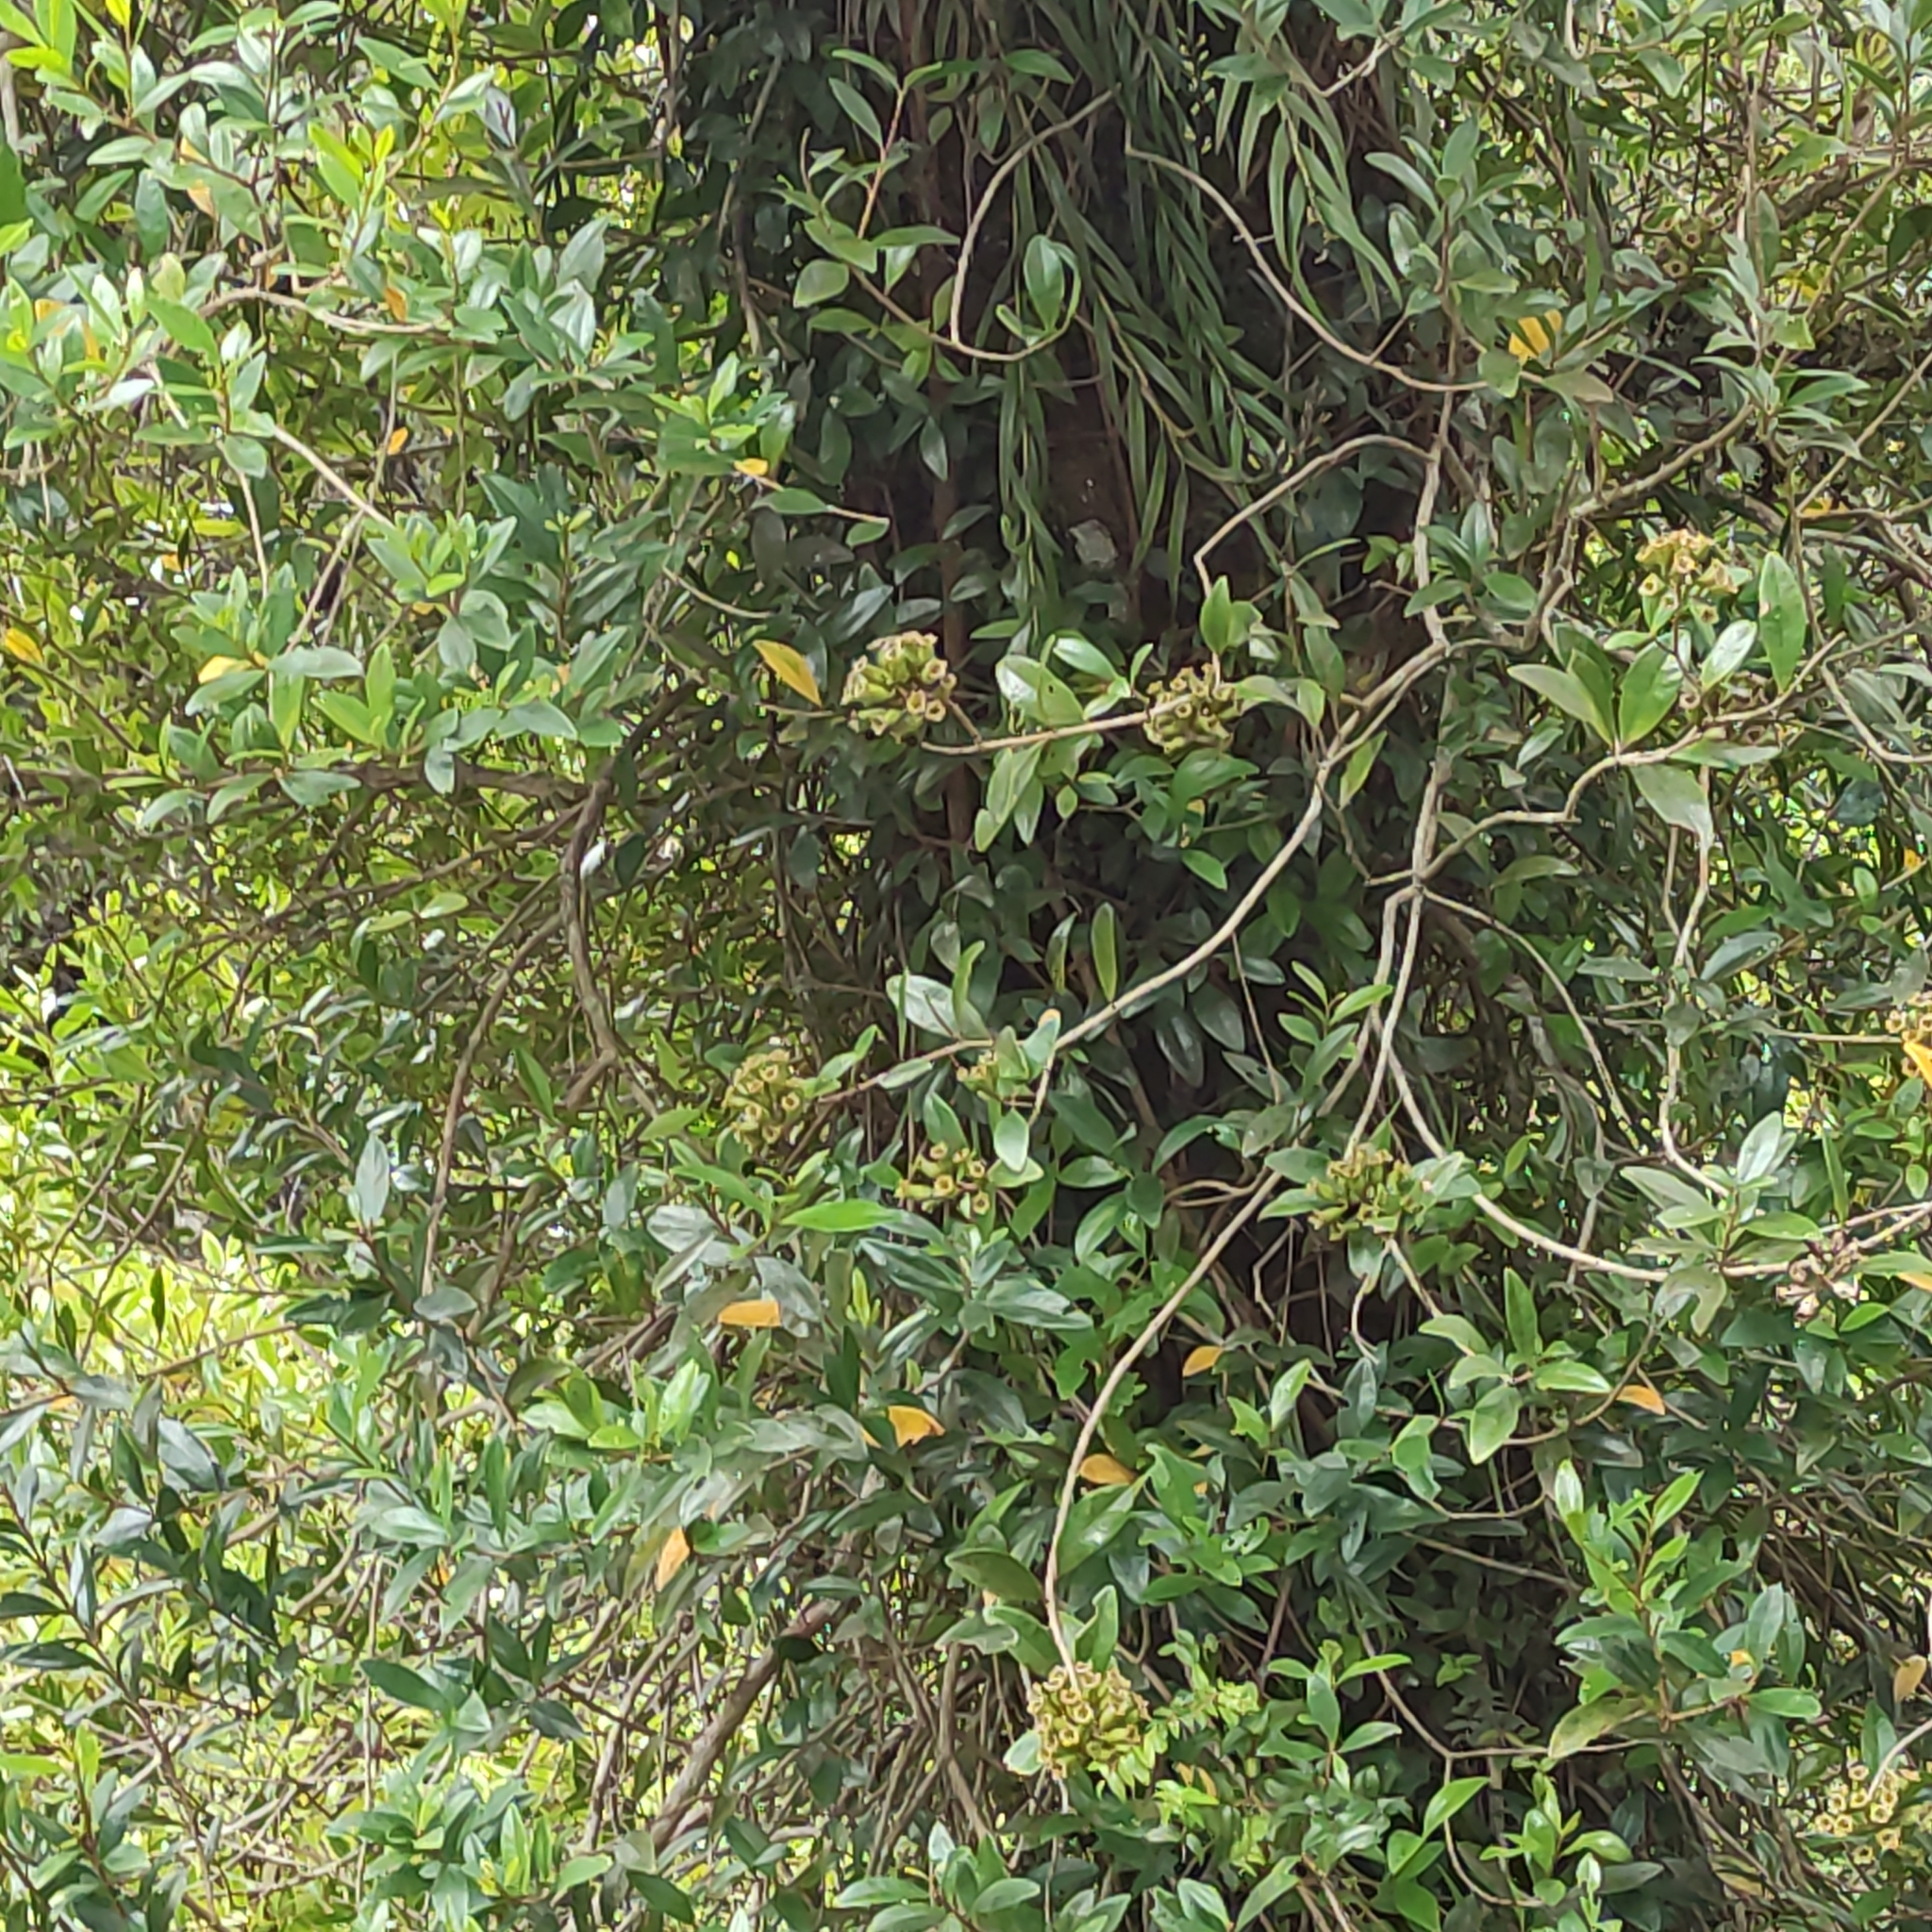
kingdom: Plantae
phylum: Tracheophyta
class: Magnoliopsida
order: Myrtales
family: Myrtaceae
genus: Metrosideros
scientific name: Metrosideros fulgens
